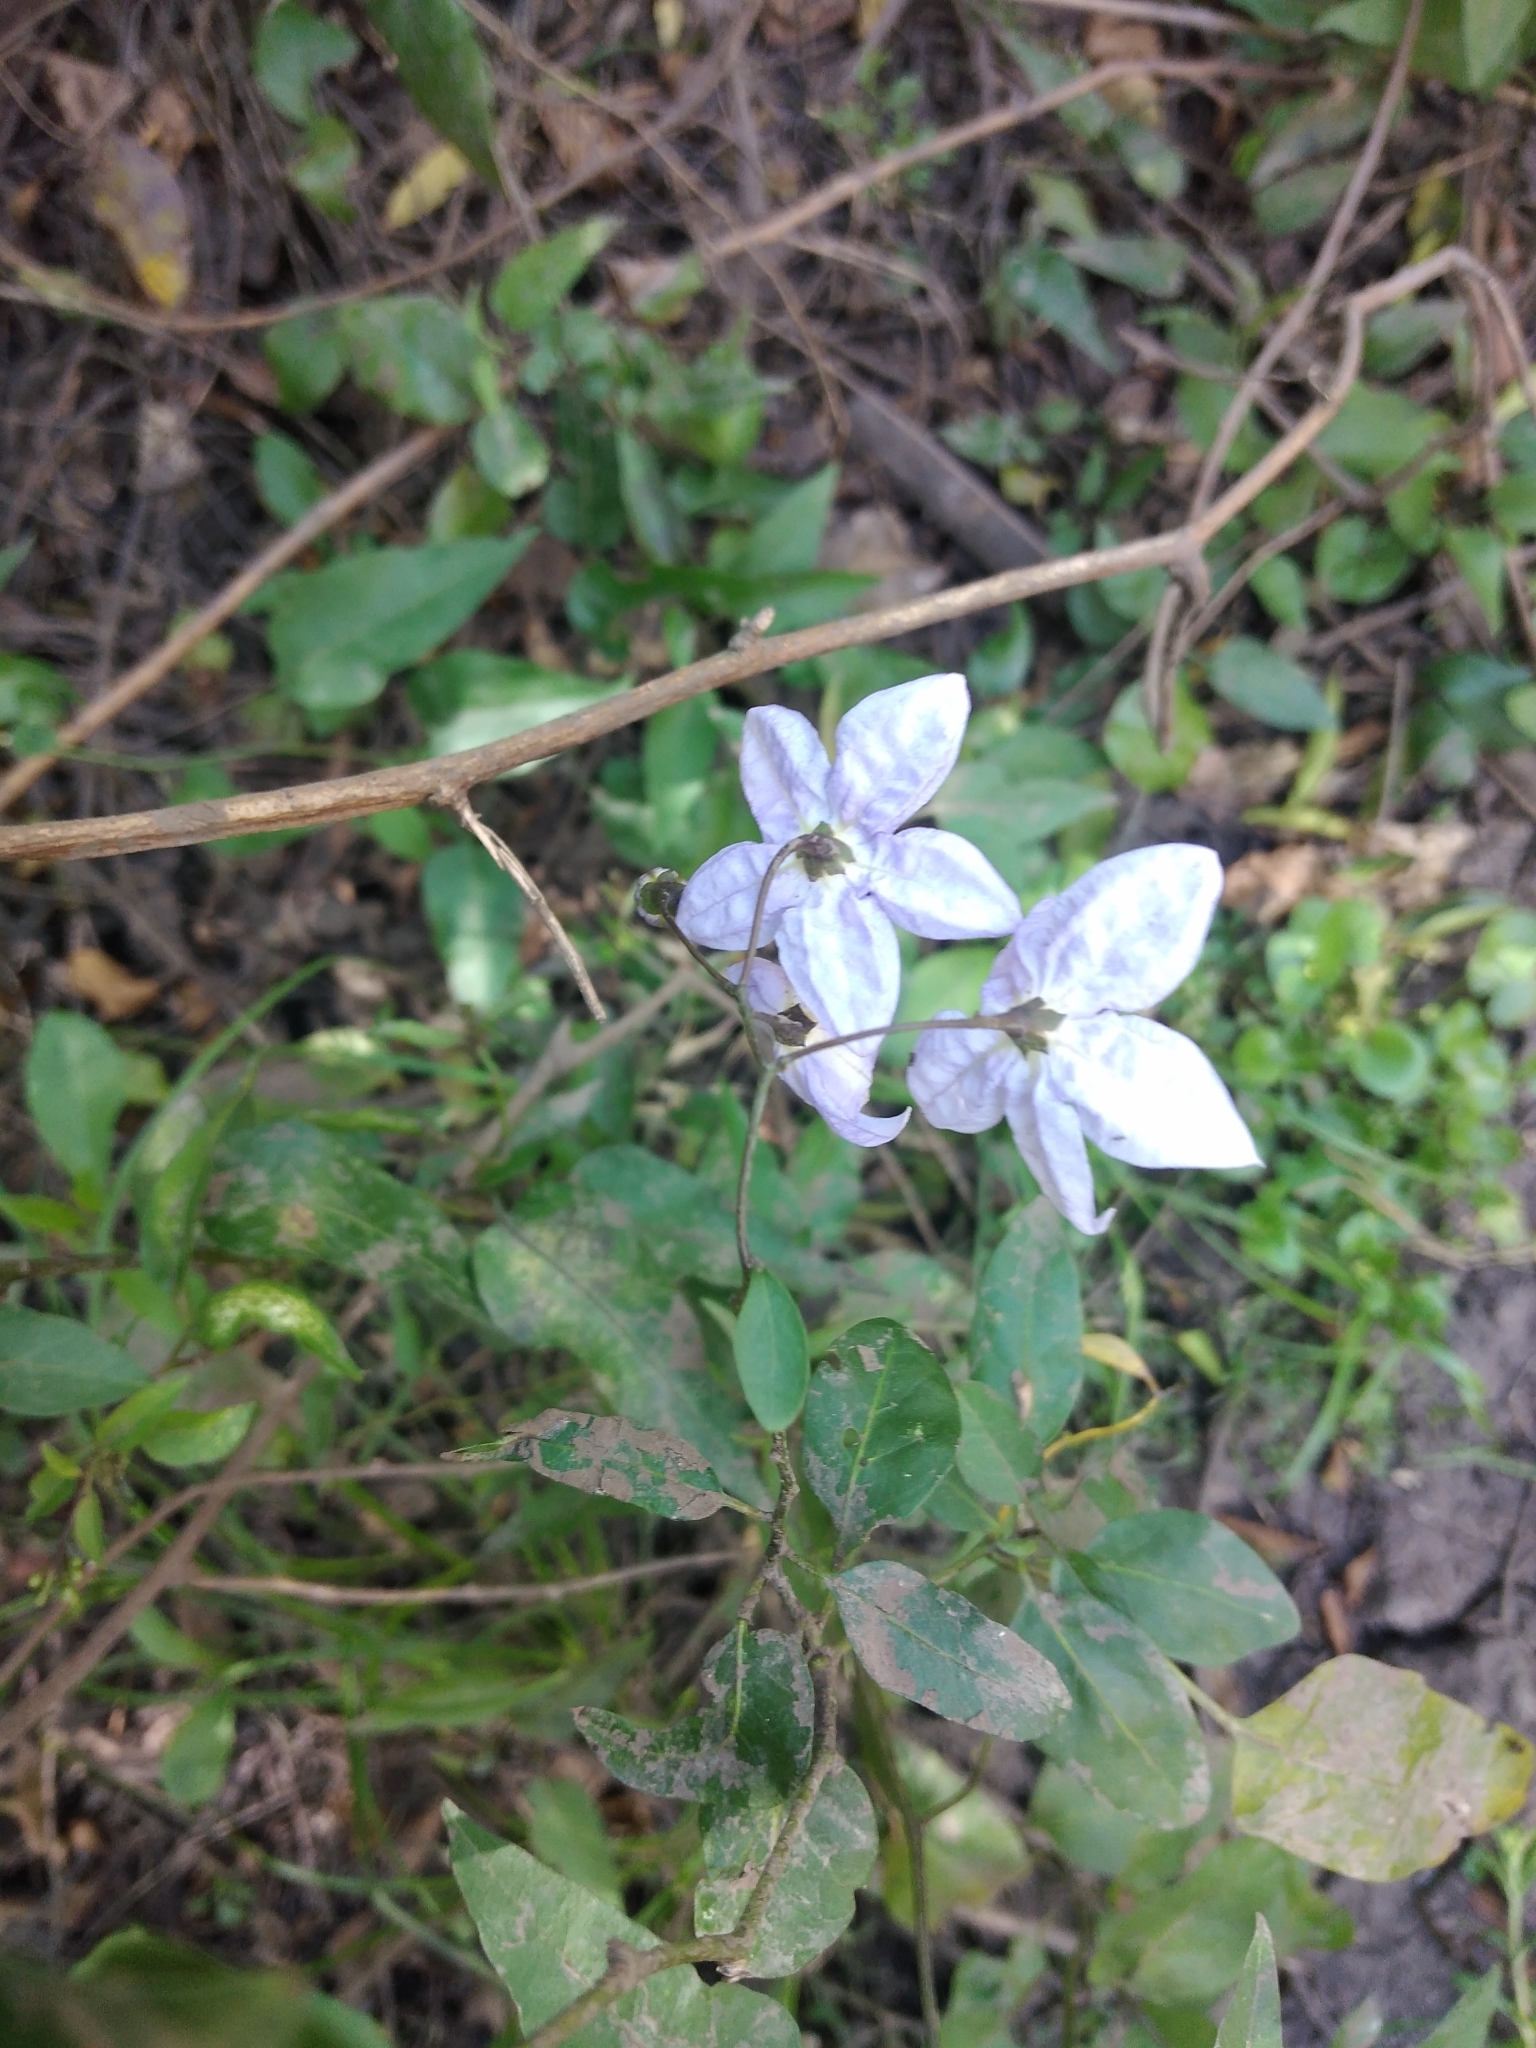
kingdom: Plantae
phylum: Tracheophyta
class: Magnoliopsida
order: Solanales
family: Solanaceae
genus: Solanum
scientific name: Solanum laxum
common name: Nightshade
